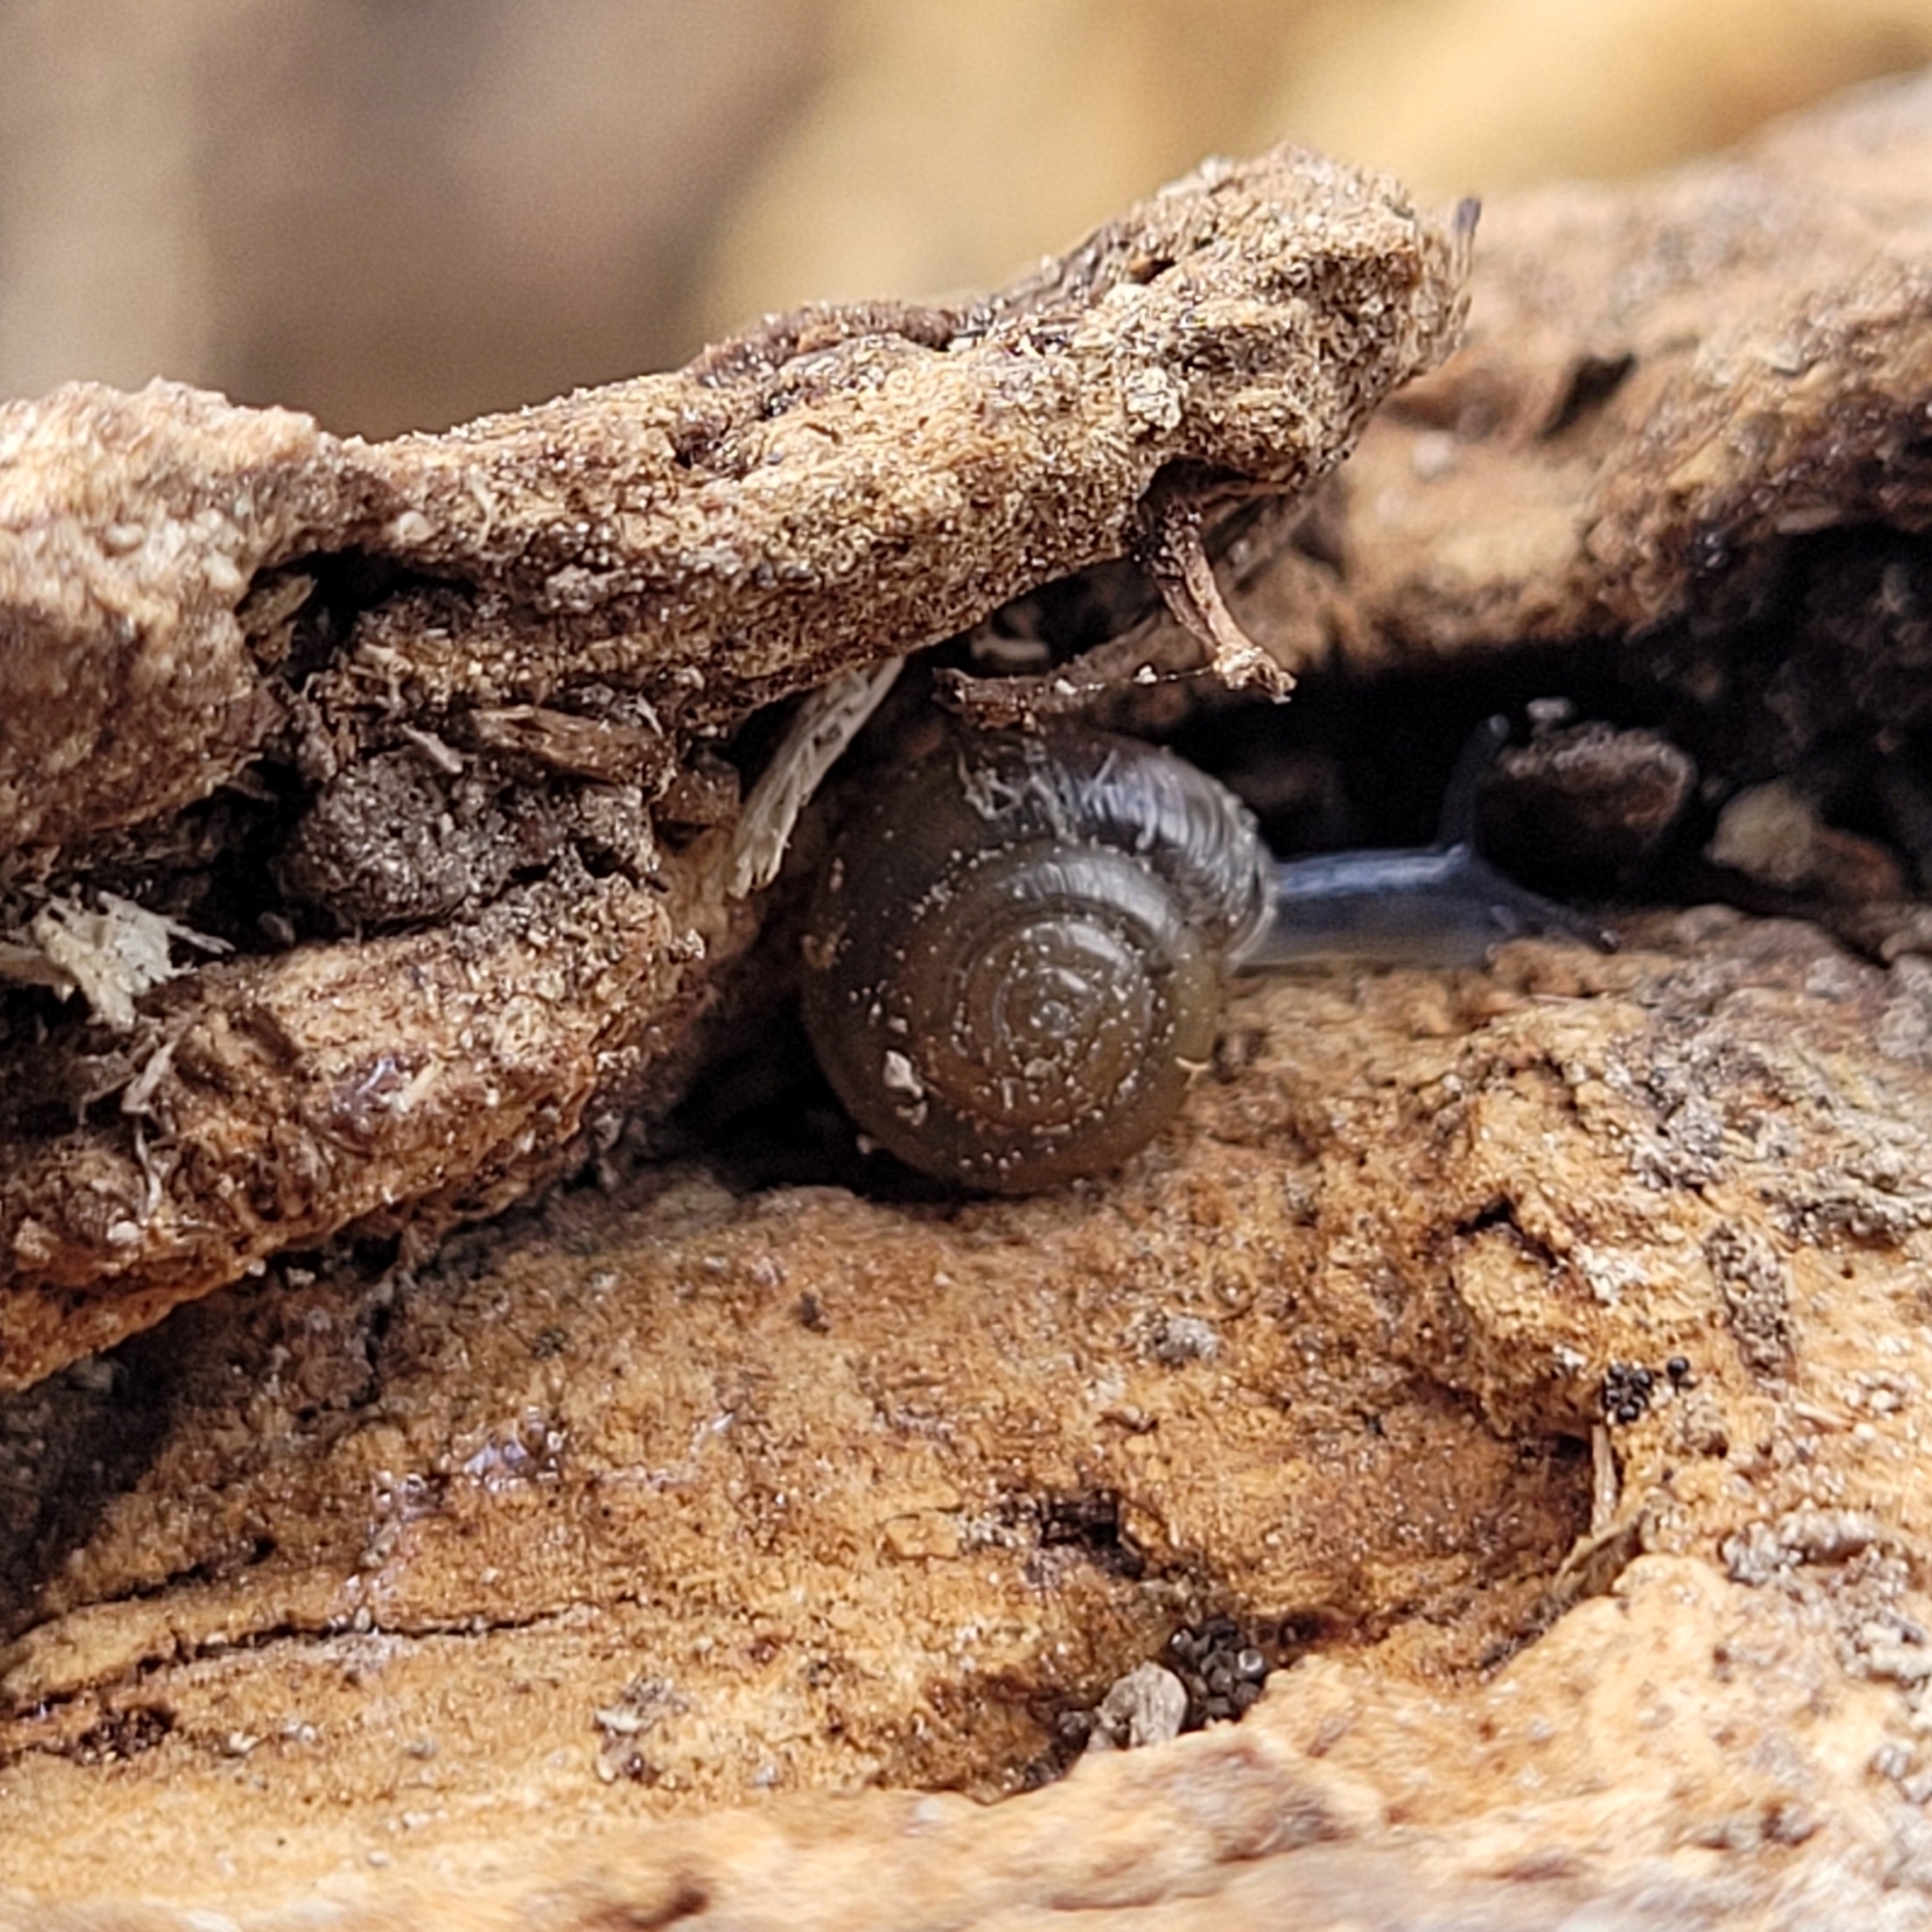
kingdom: Animalia
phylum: Mollusca
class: Gastropoda
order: Stylommatophora
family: Gastrodontidae
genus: Zonitoides
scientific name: Zonitoides arboreus
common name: Quick gloss
